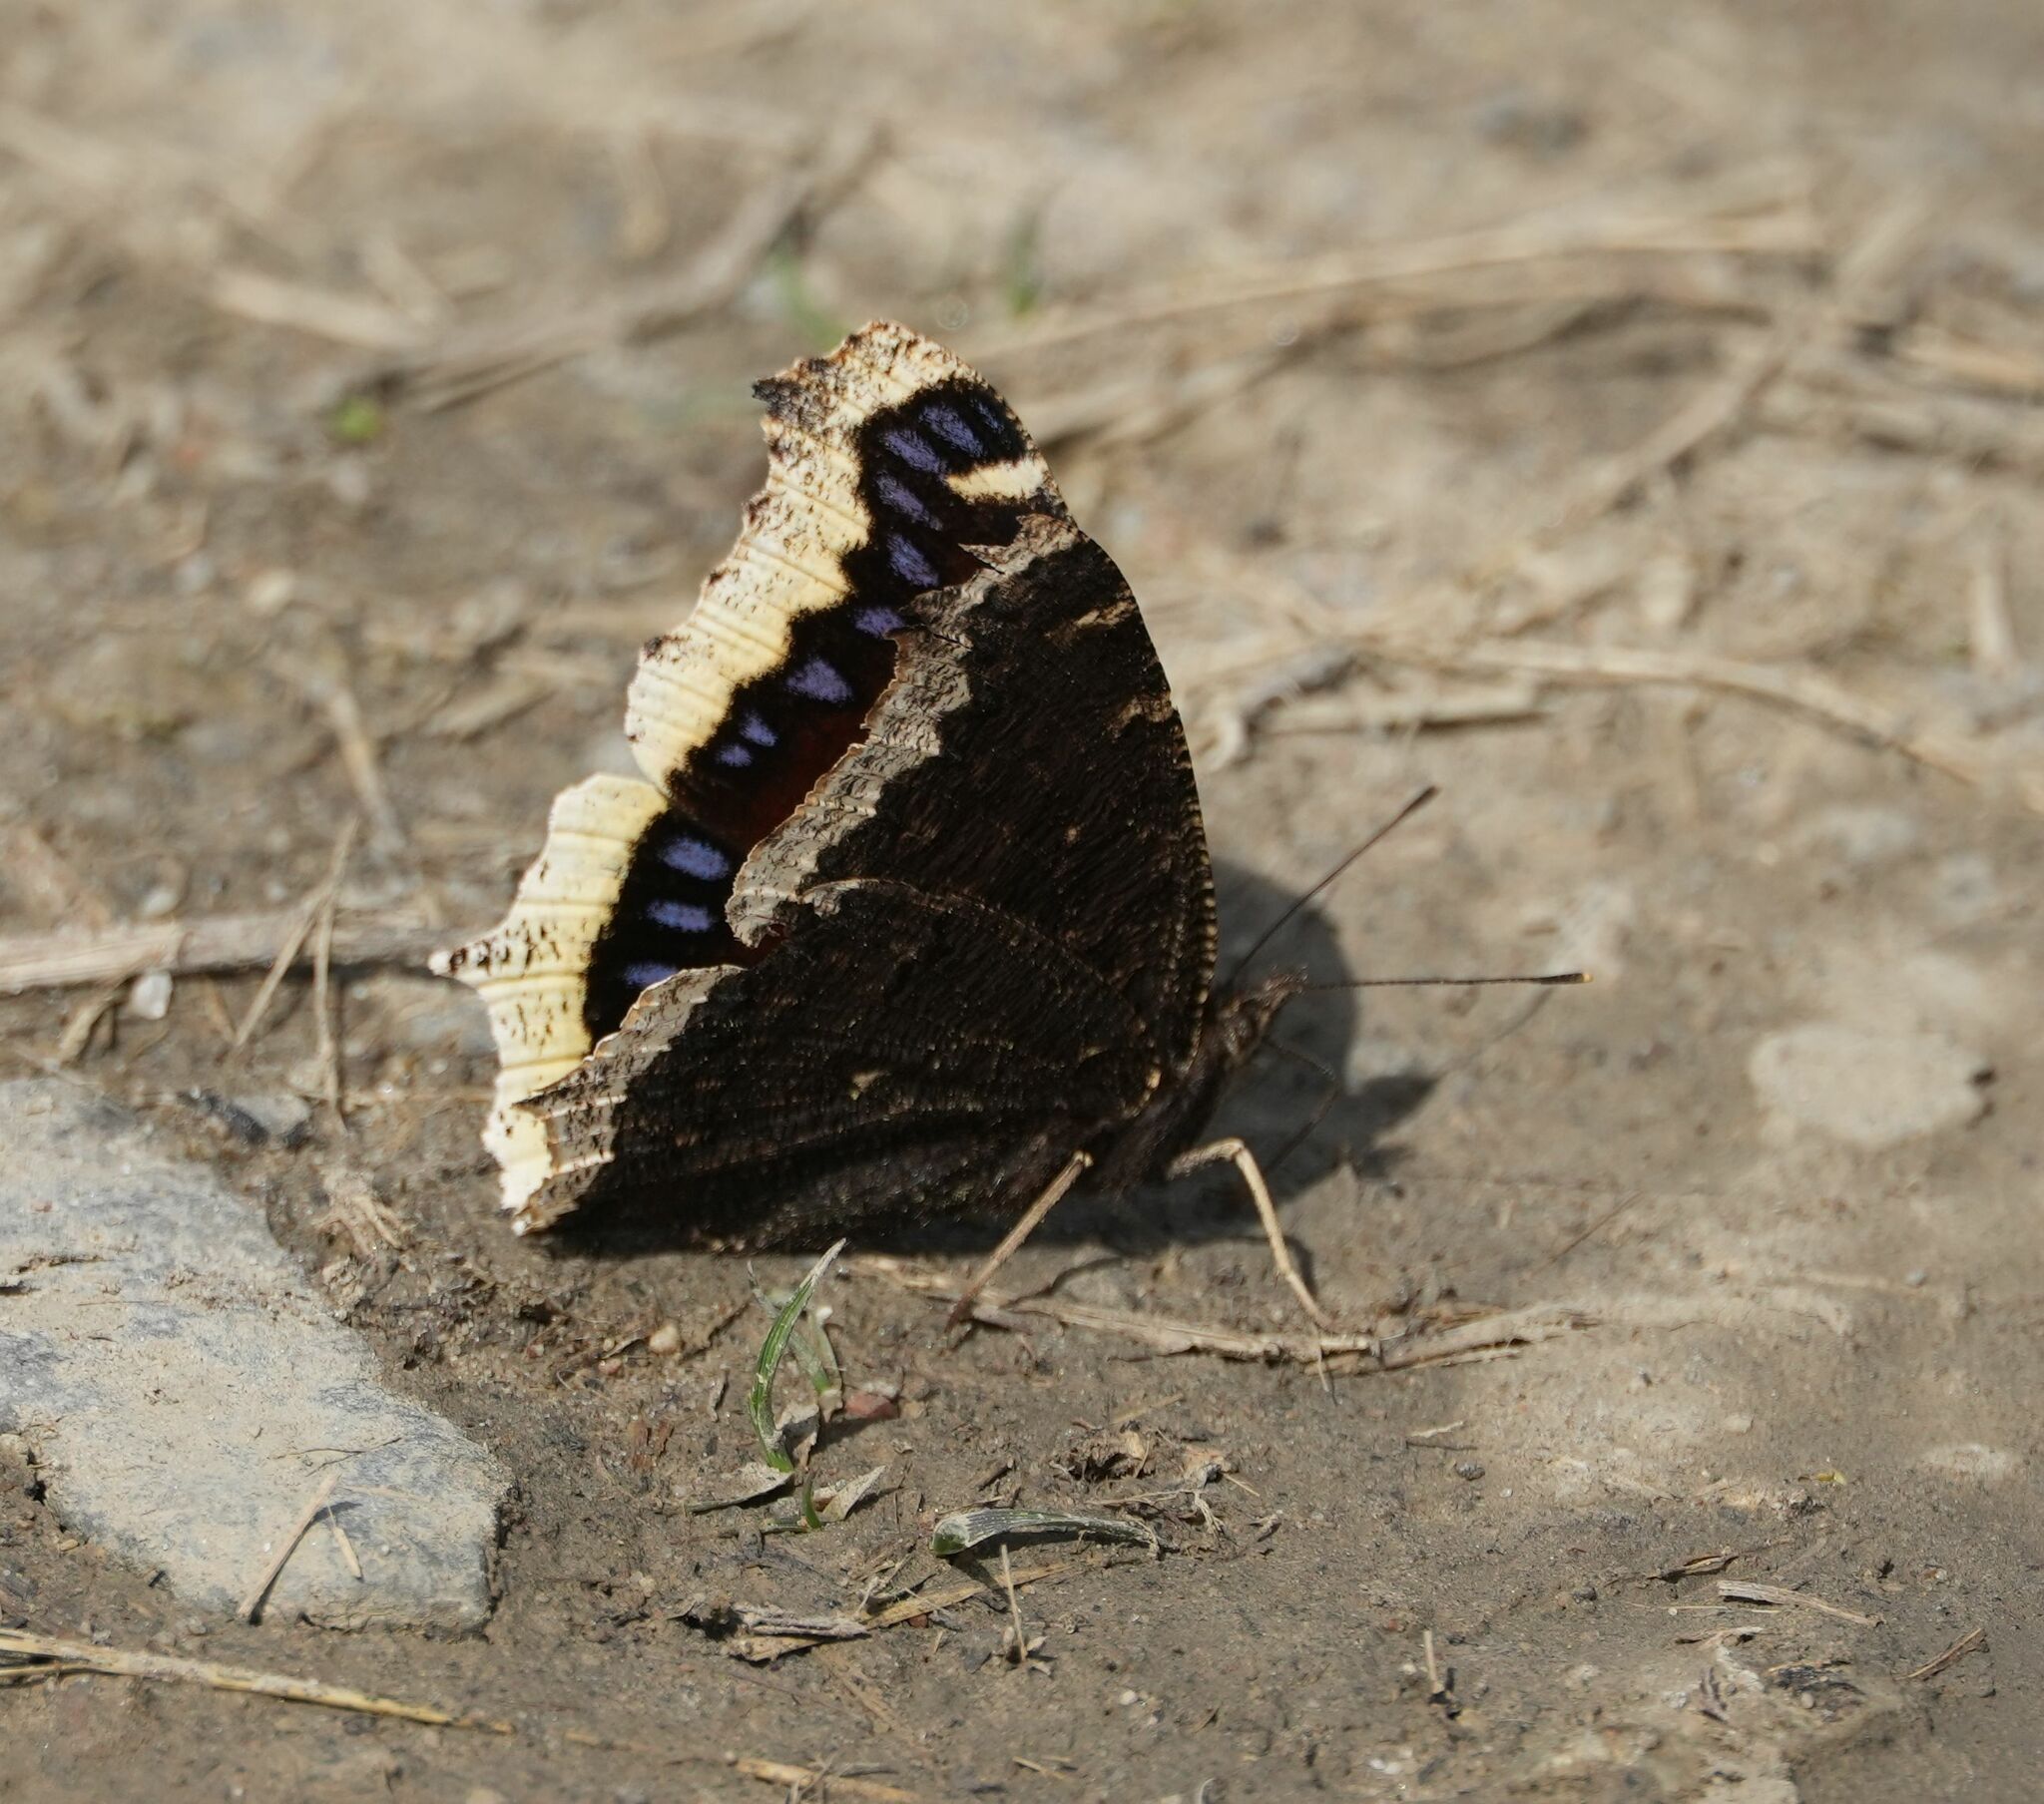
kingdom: Animalia
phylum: Arthropoda
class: Insecta
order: Lepidoptera
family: Nymphalidae
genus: Nymphalis
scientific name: Nymphalis antiopa
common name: Camberwell beauty
